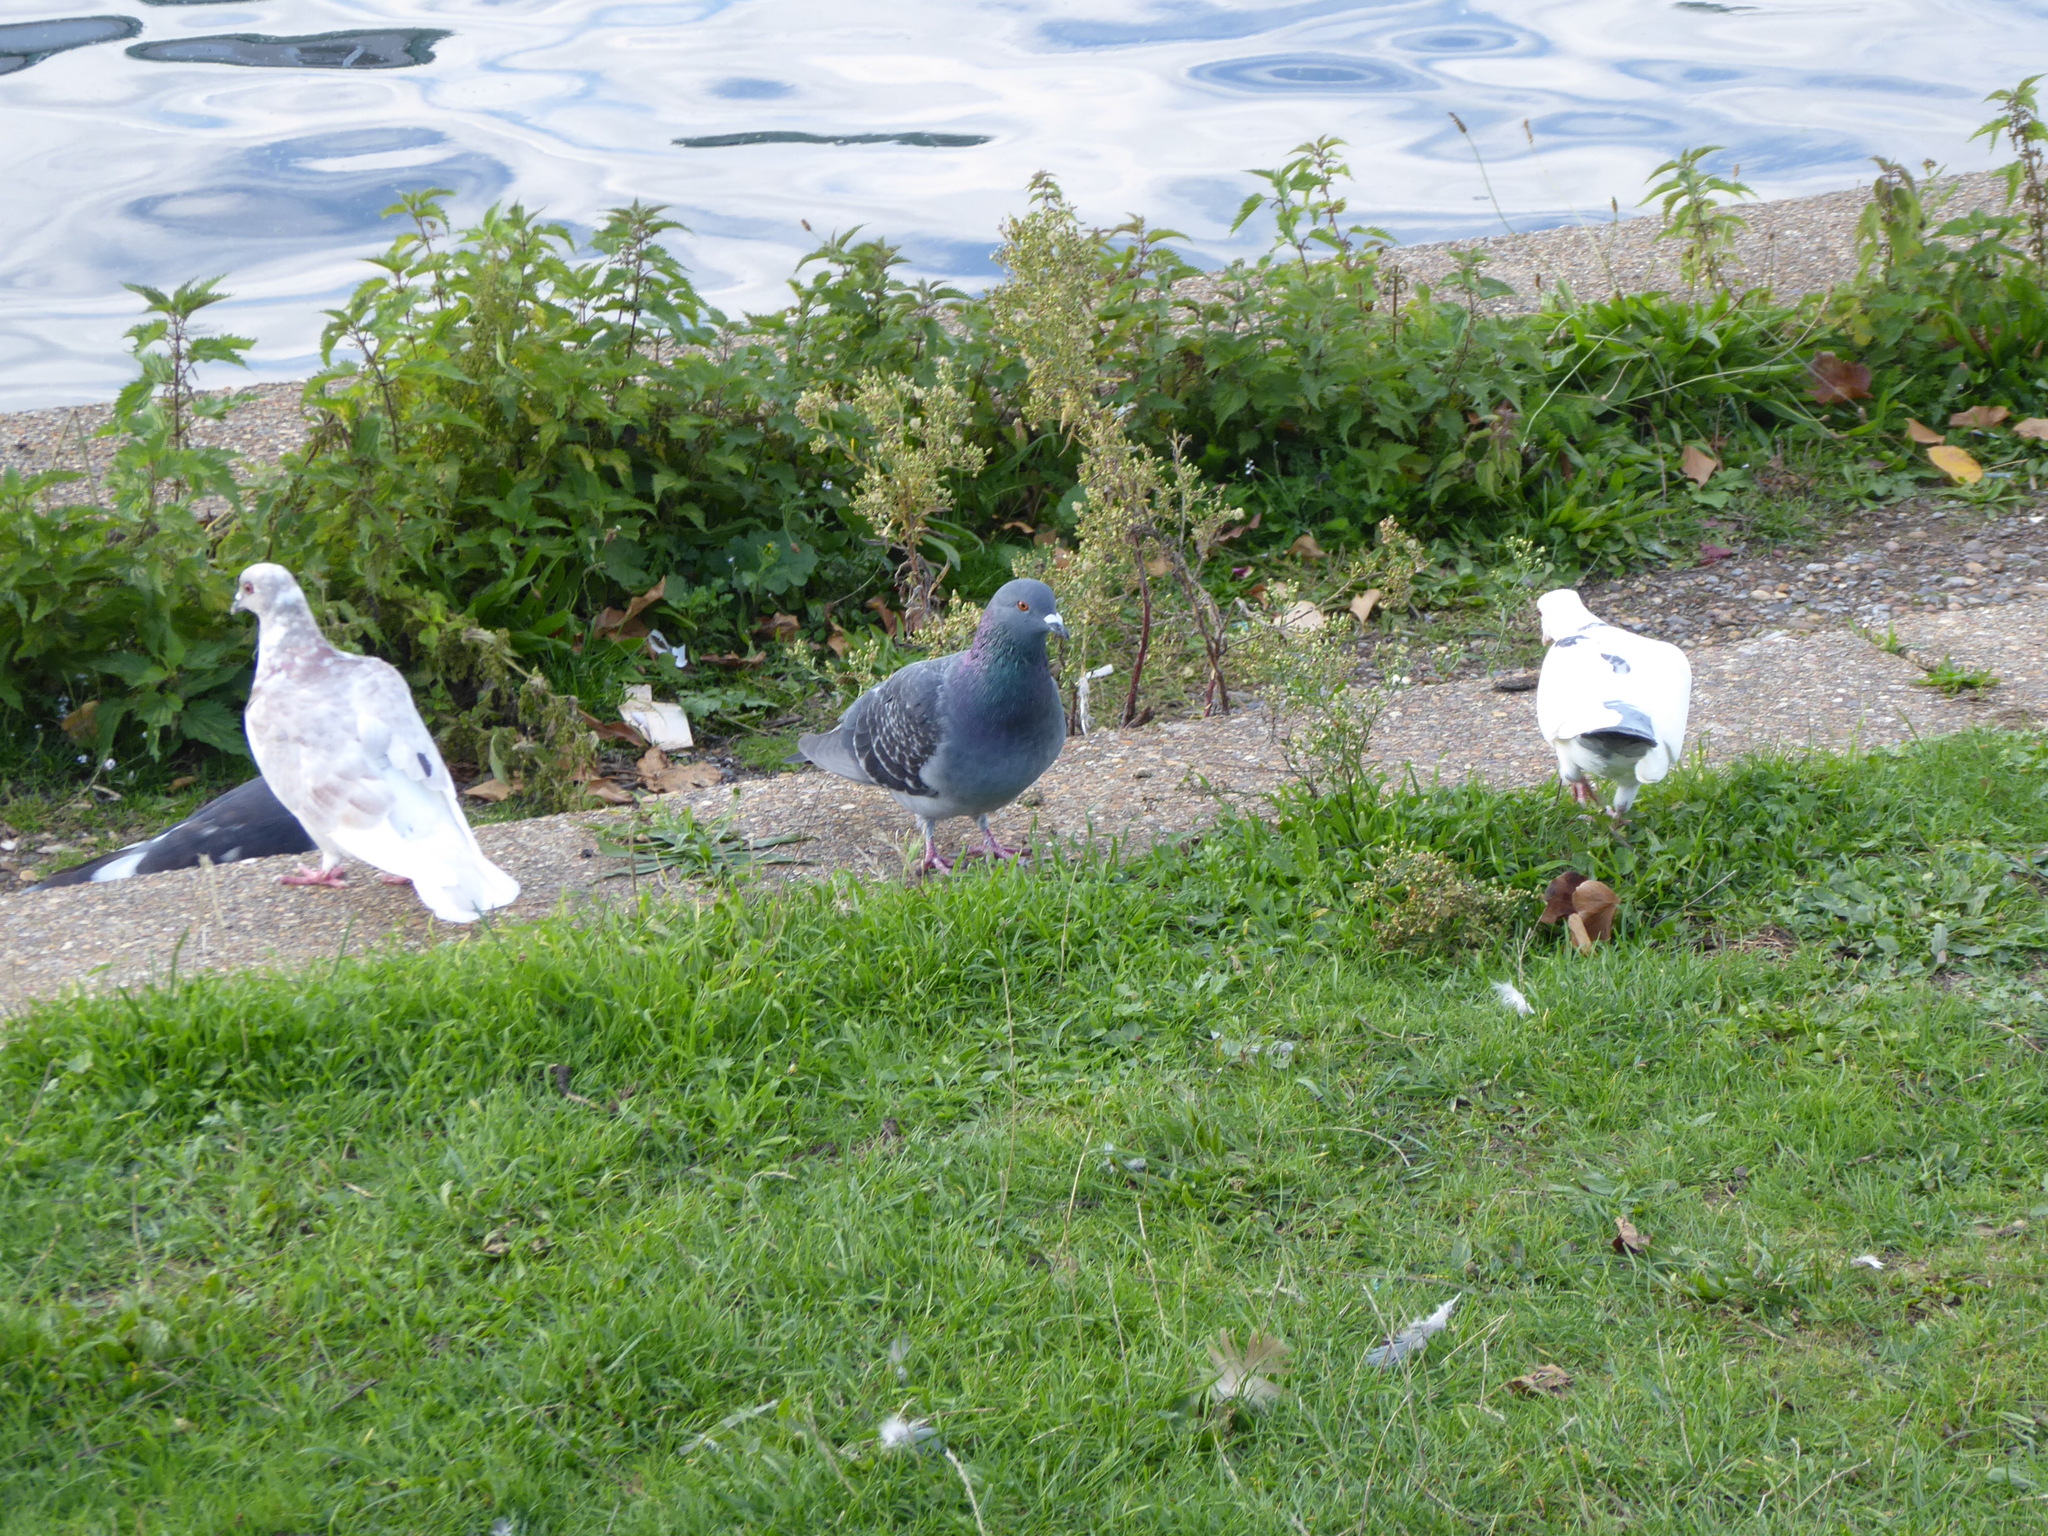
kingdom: Animalia
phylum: Chordata
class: Aves
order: Columbiformes
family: Columbidae
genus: Columba
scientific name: Columba livia
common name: Rock pigeon
